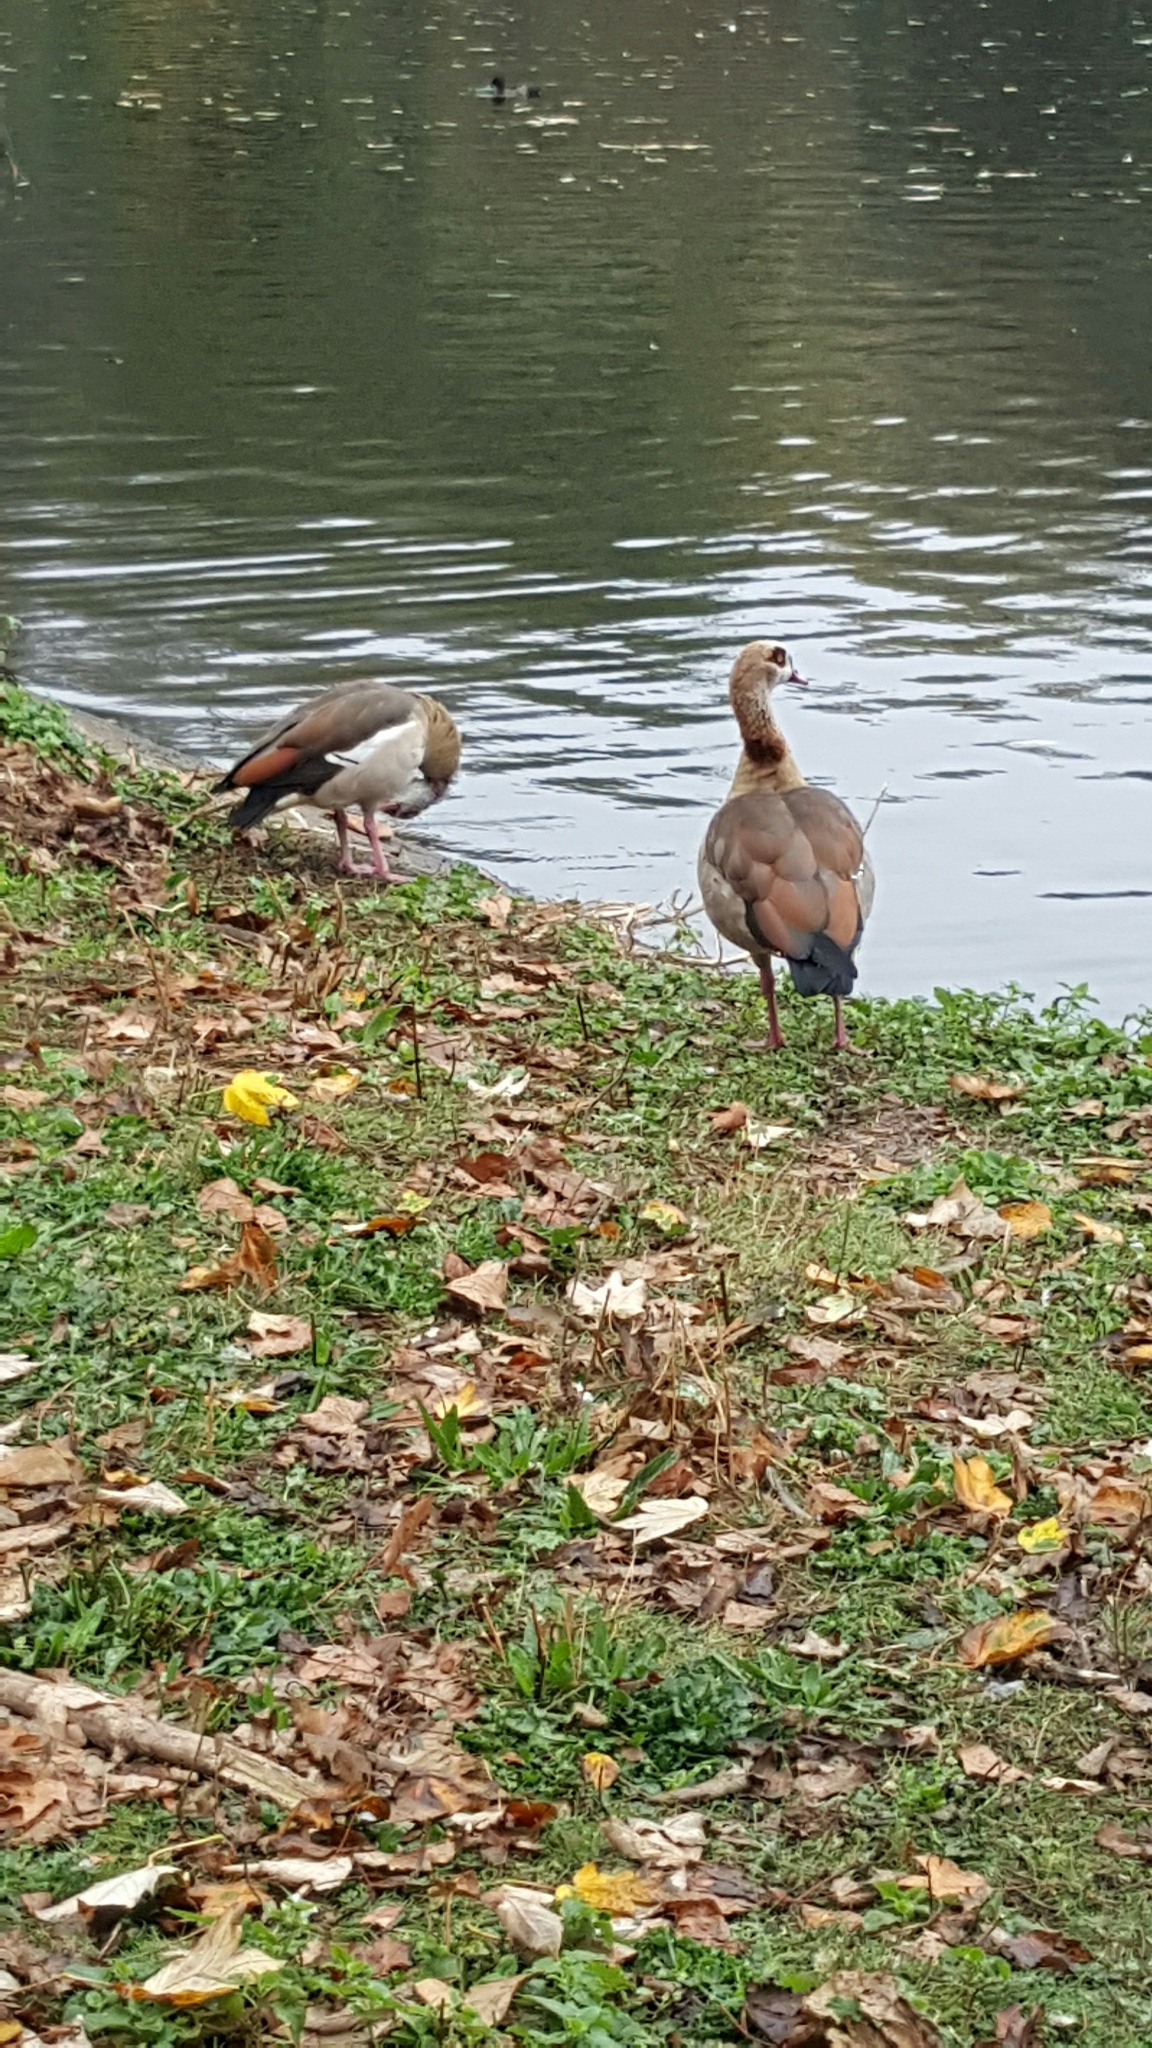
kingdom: Animalia
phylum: Chordata
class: Aves
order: Anseriformes
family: Anatidae
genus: Alopochen
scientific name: Alopochen aegyptiaca
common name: Egyptian goose
